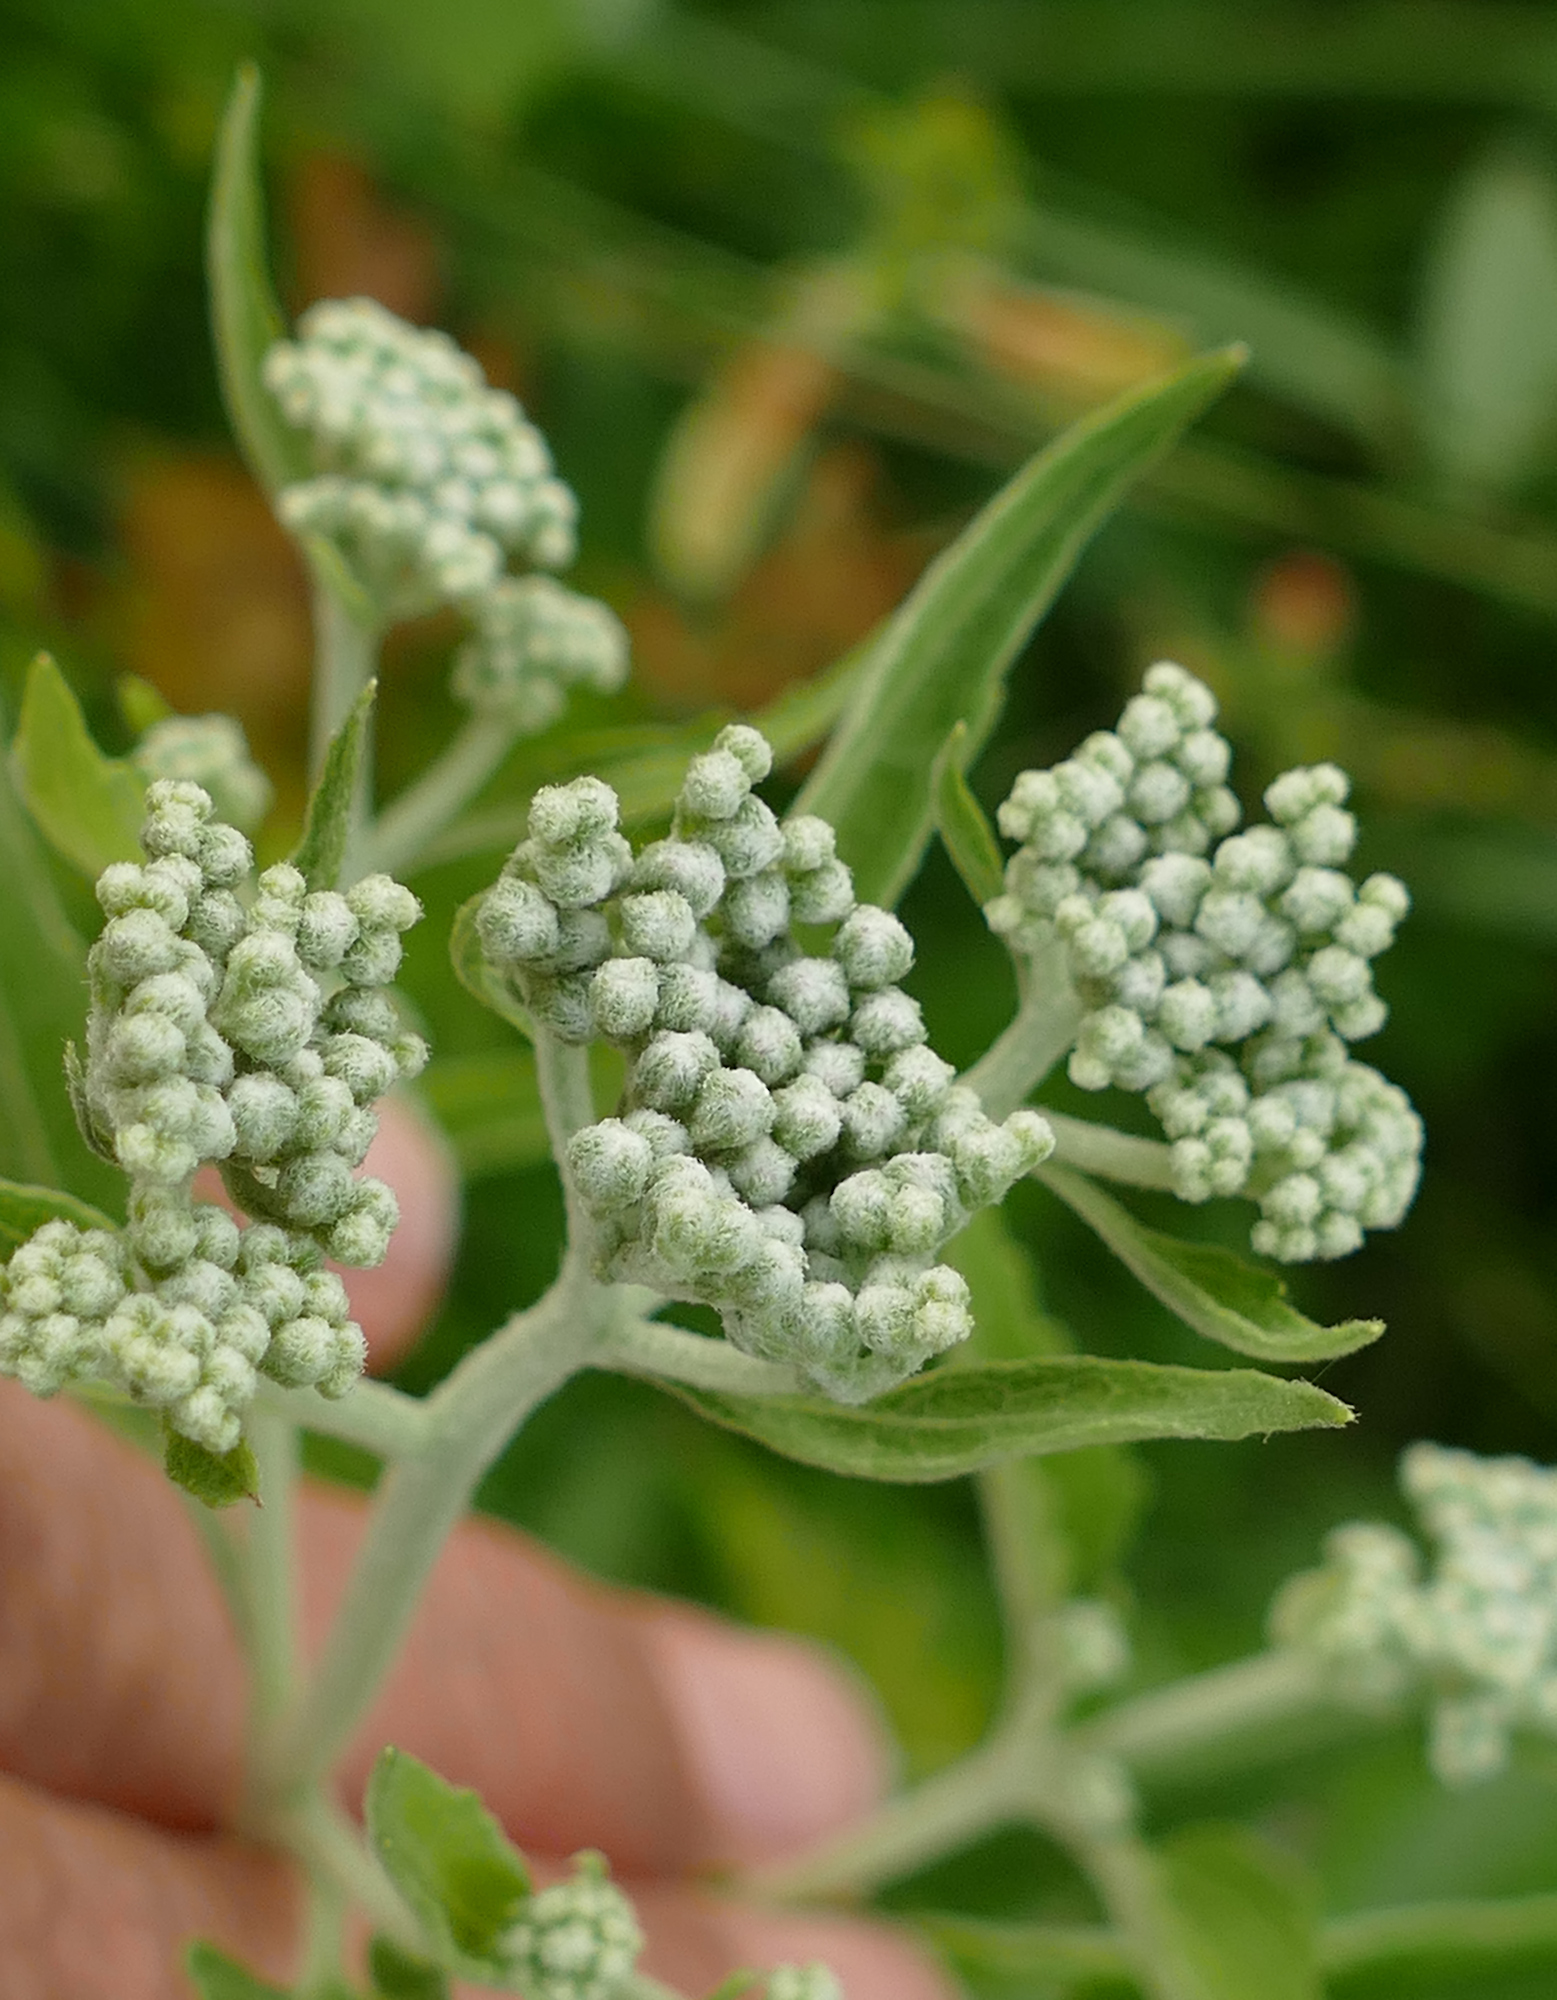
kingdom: Plantae
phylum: Tracheophyta
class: Magnoliopsida
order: Asterales
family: Asteraceae
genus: Eupatorium
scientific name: Eupatorium serotinum
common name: Late boneset
